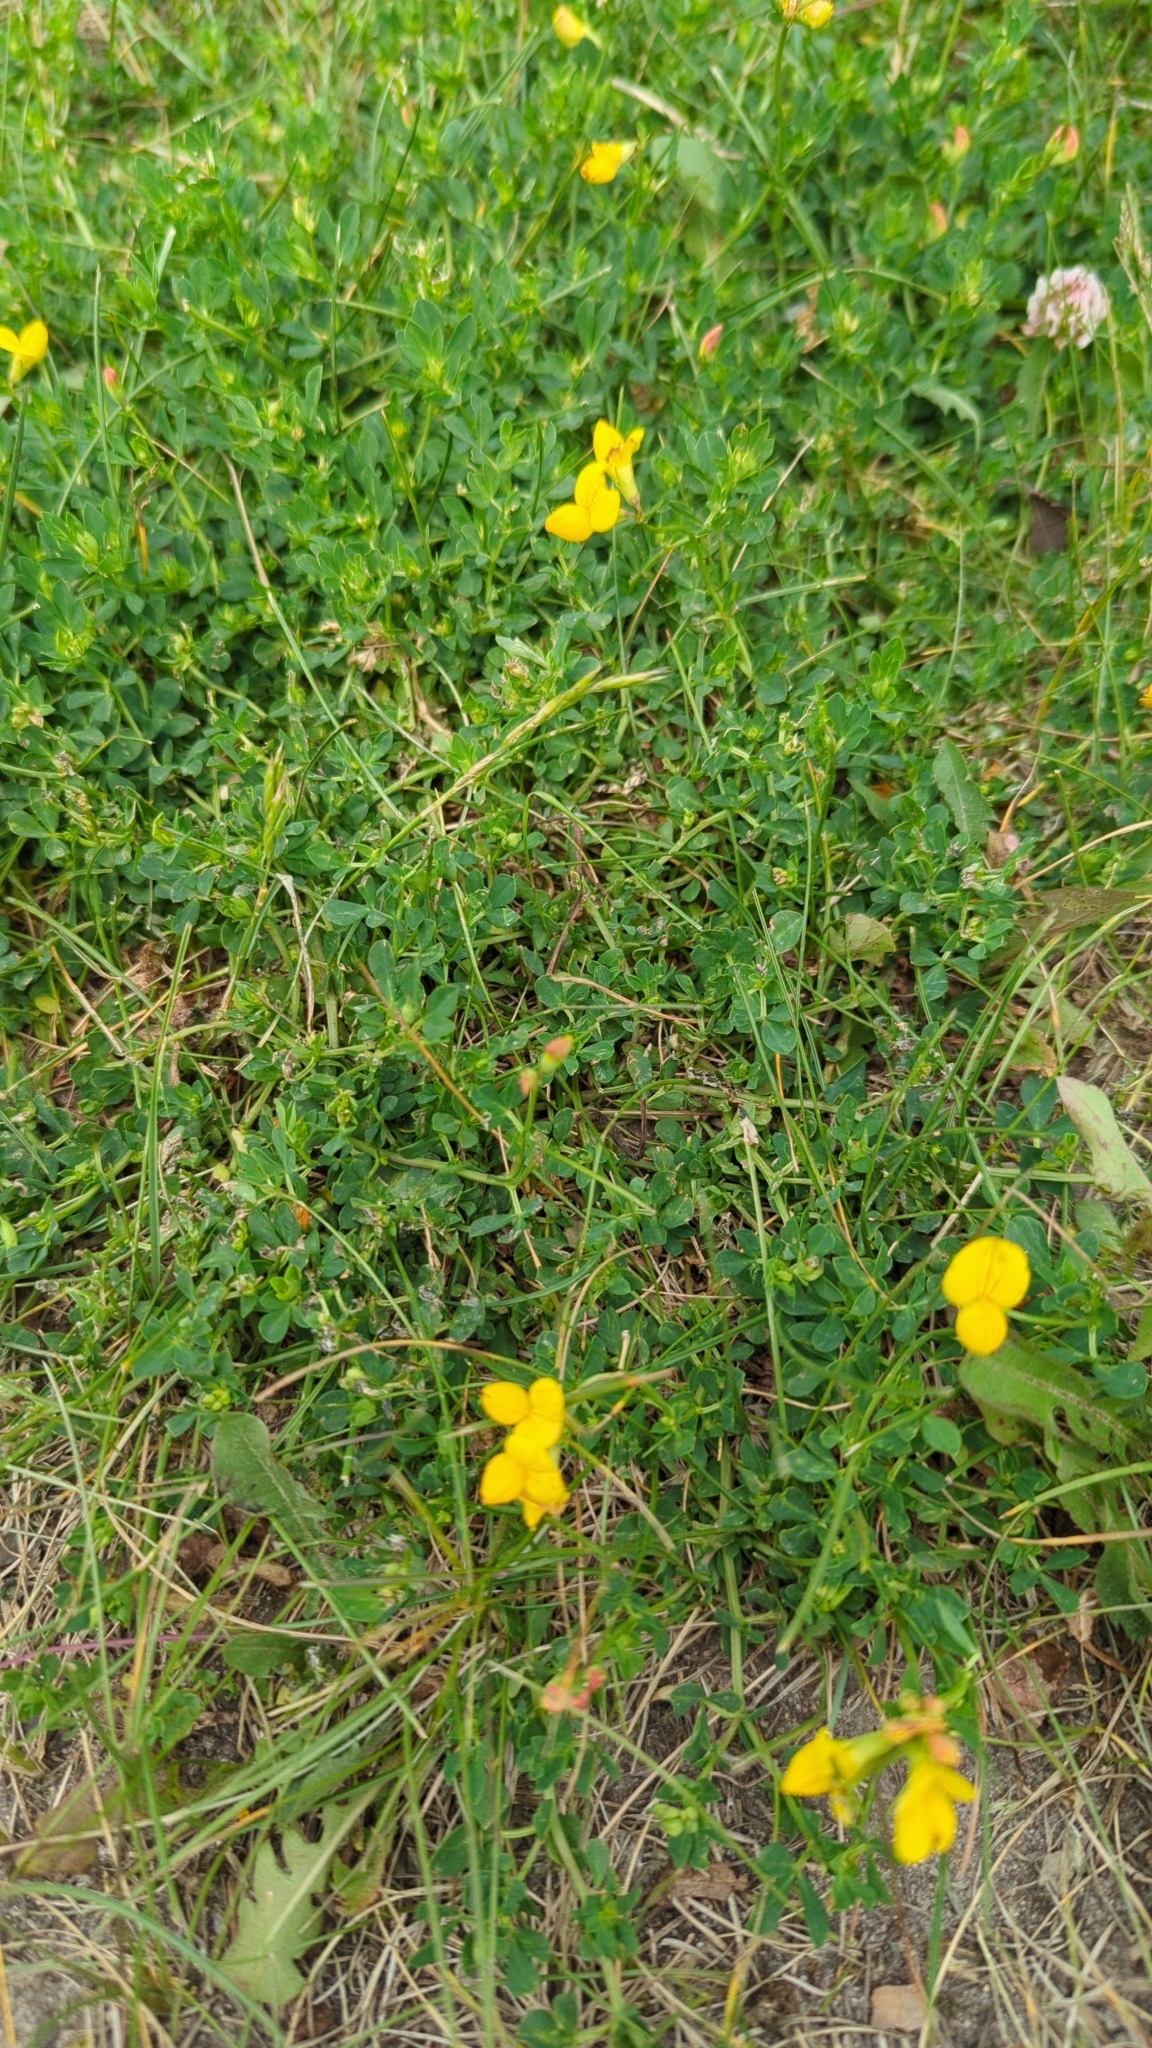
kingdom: Plantae
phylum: Tracheophyta
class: Magnoliopsida
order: Fabales
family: Fabaceae
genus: Lotus
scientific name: Lotus corniculatus
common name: Common bird's-foot-trefoil
